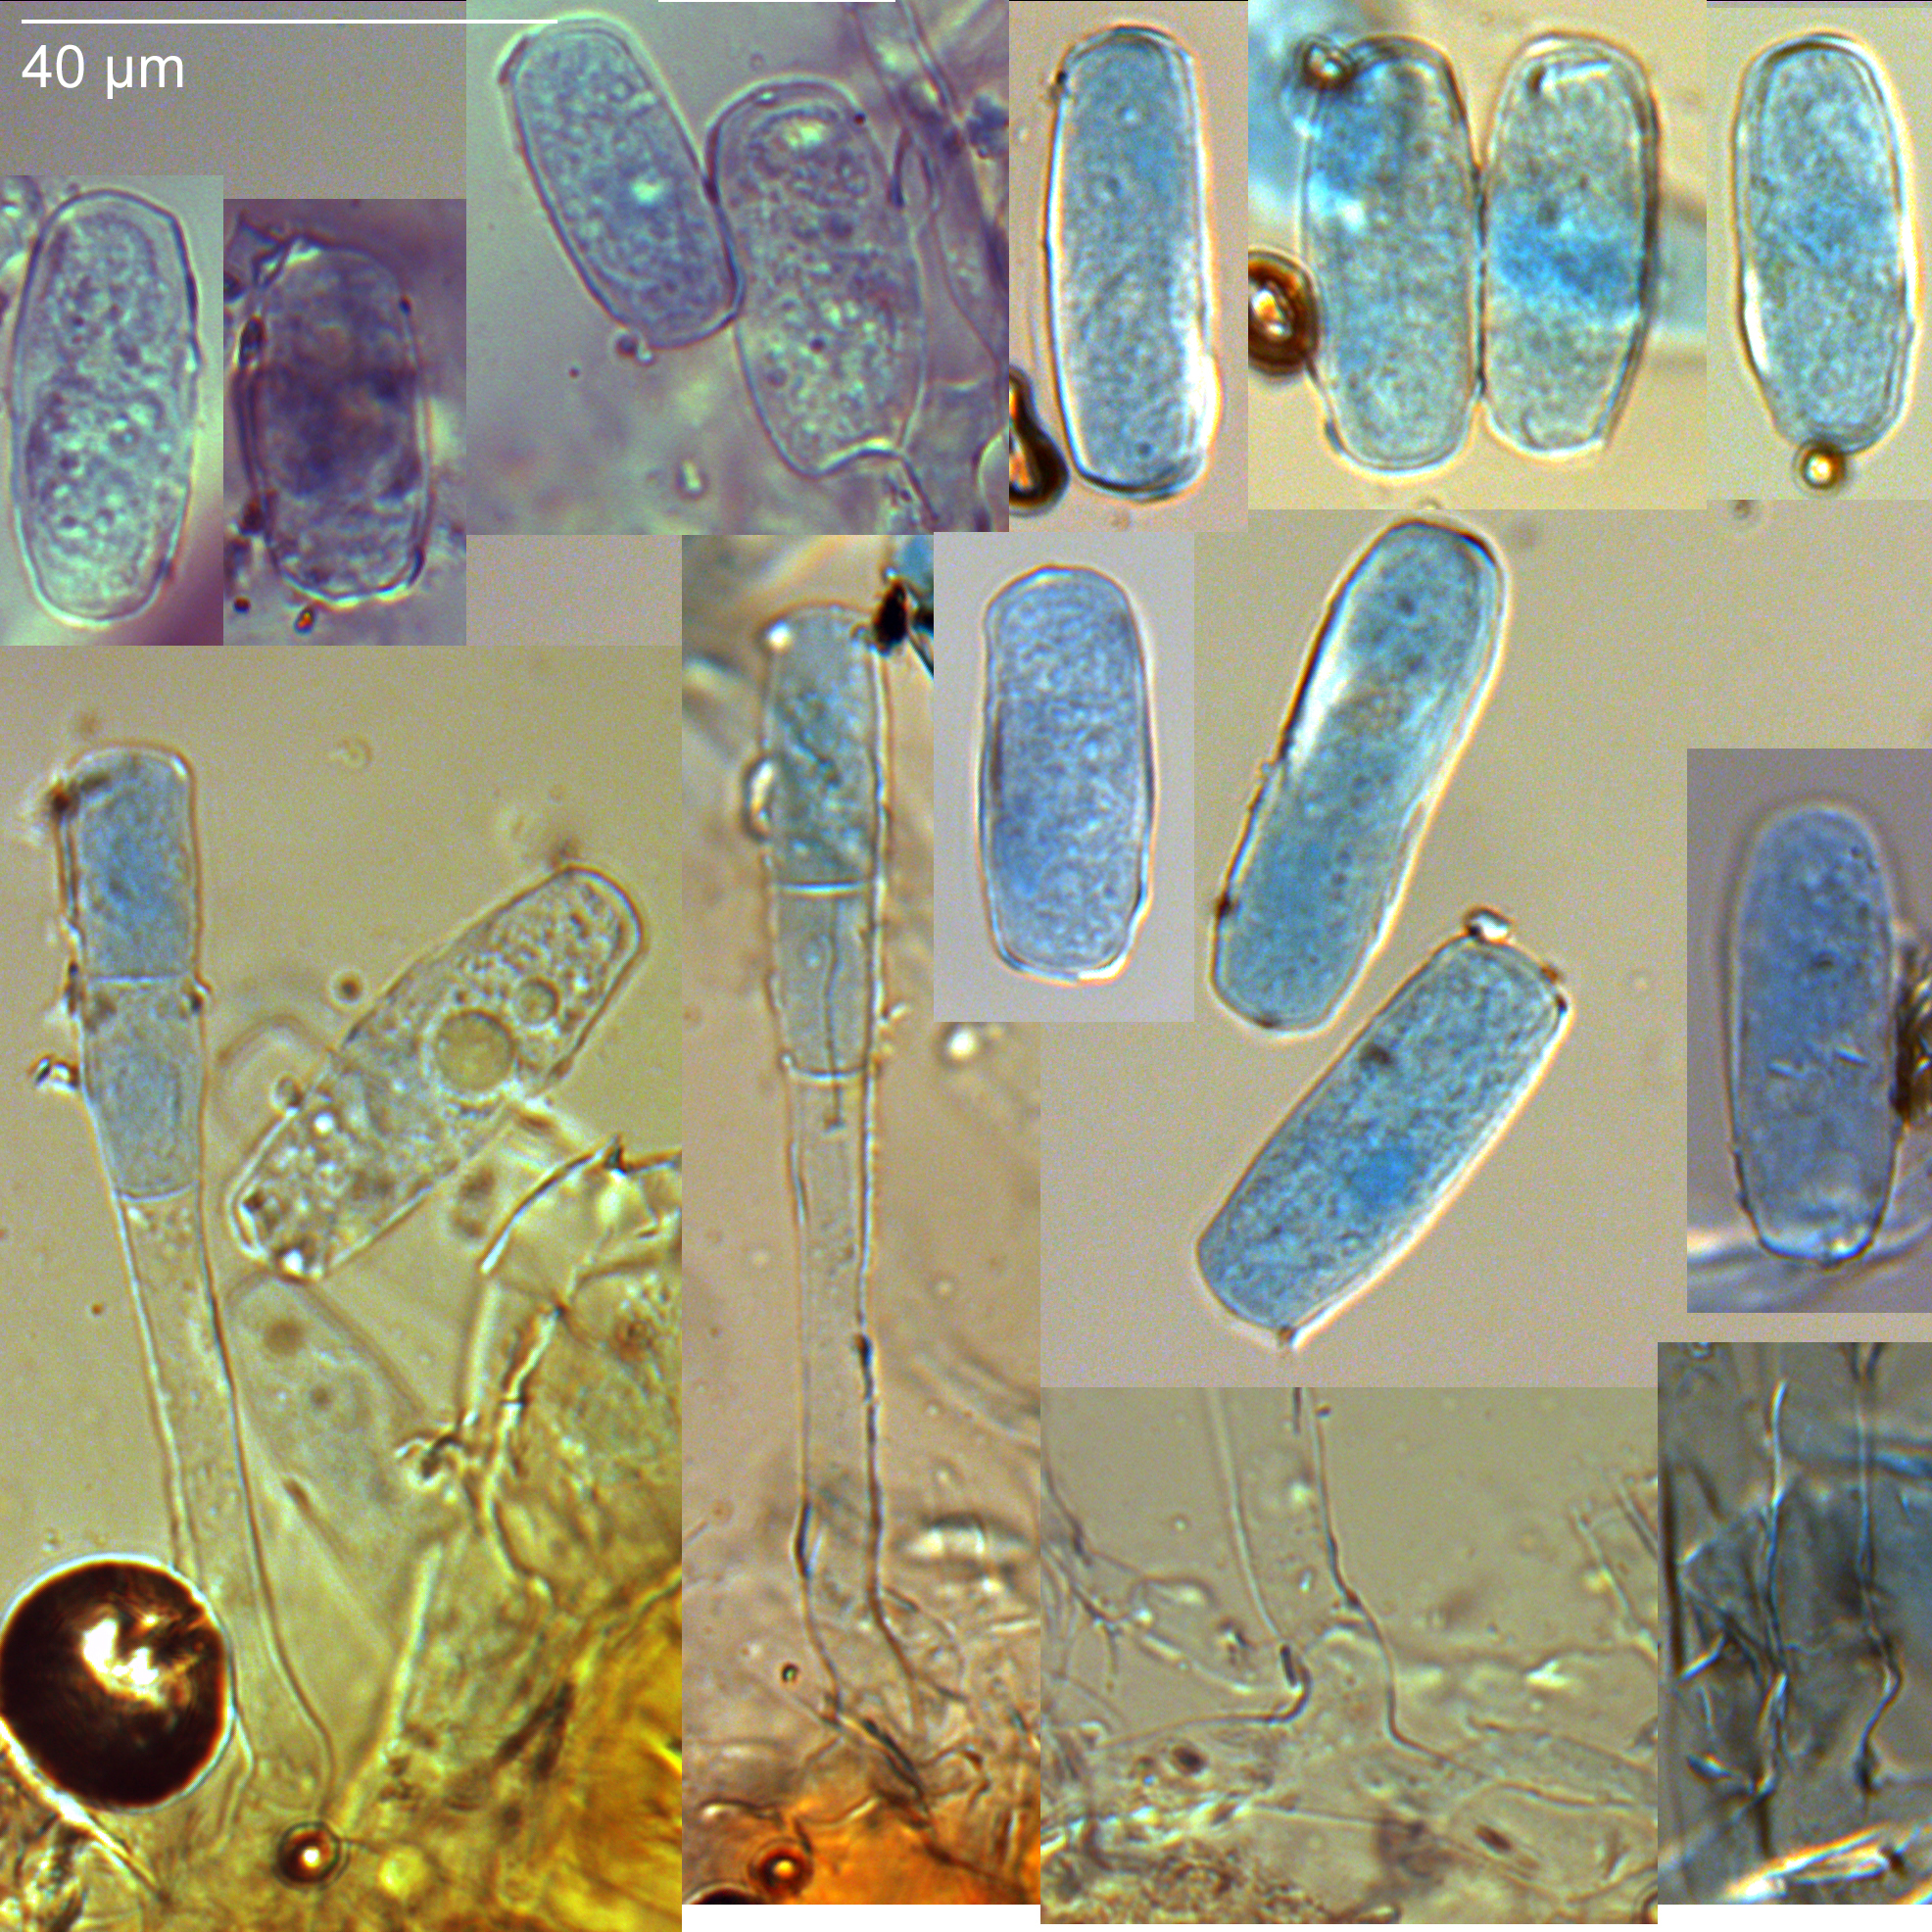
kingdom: Fungi
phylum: Ascomycota
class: Leotiomycetes
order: Helotiales
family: Erysiphaceae
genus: Erysiphe
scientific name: Erysiphe azaleae
